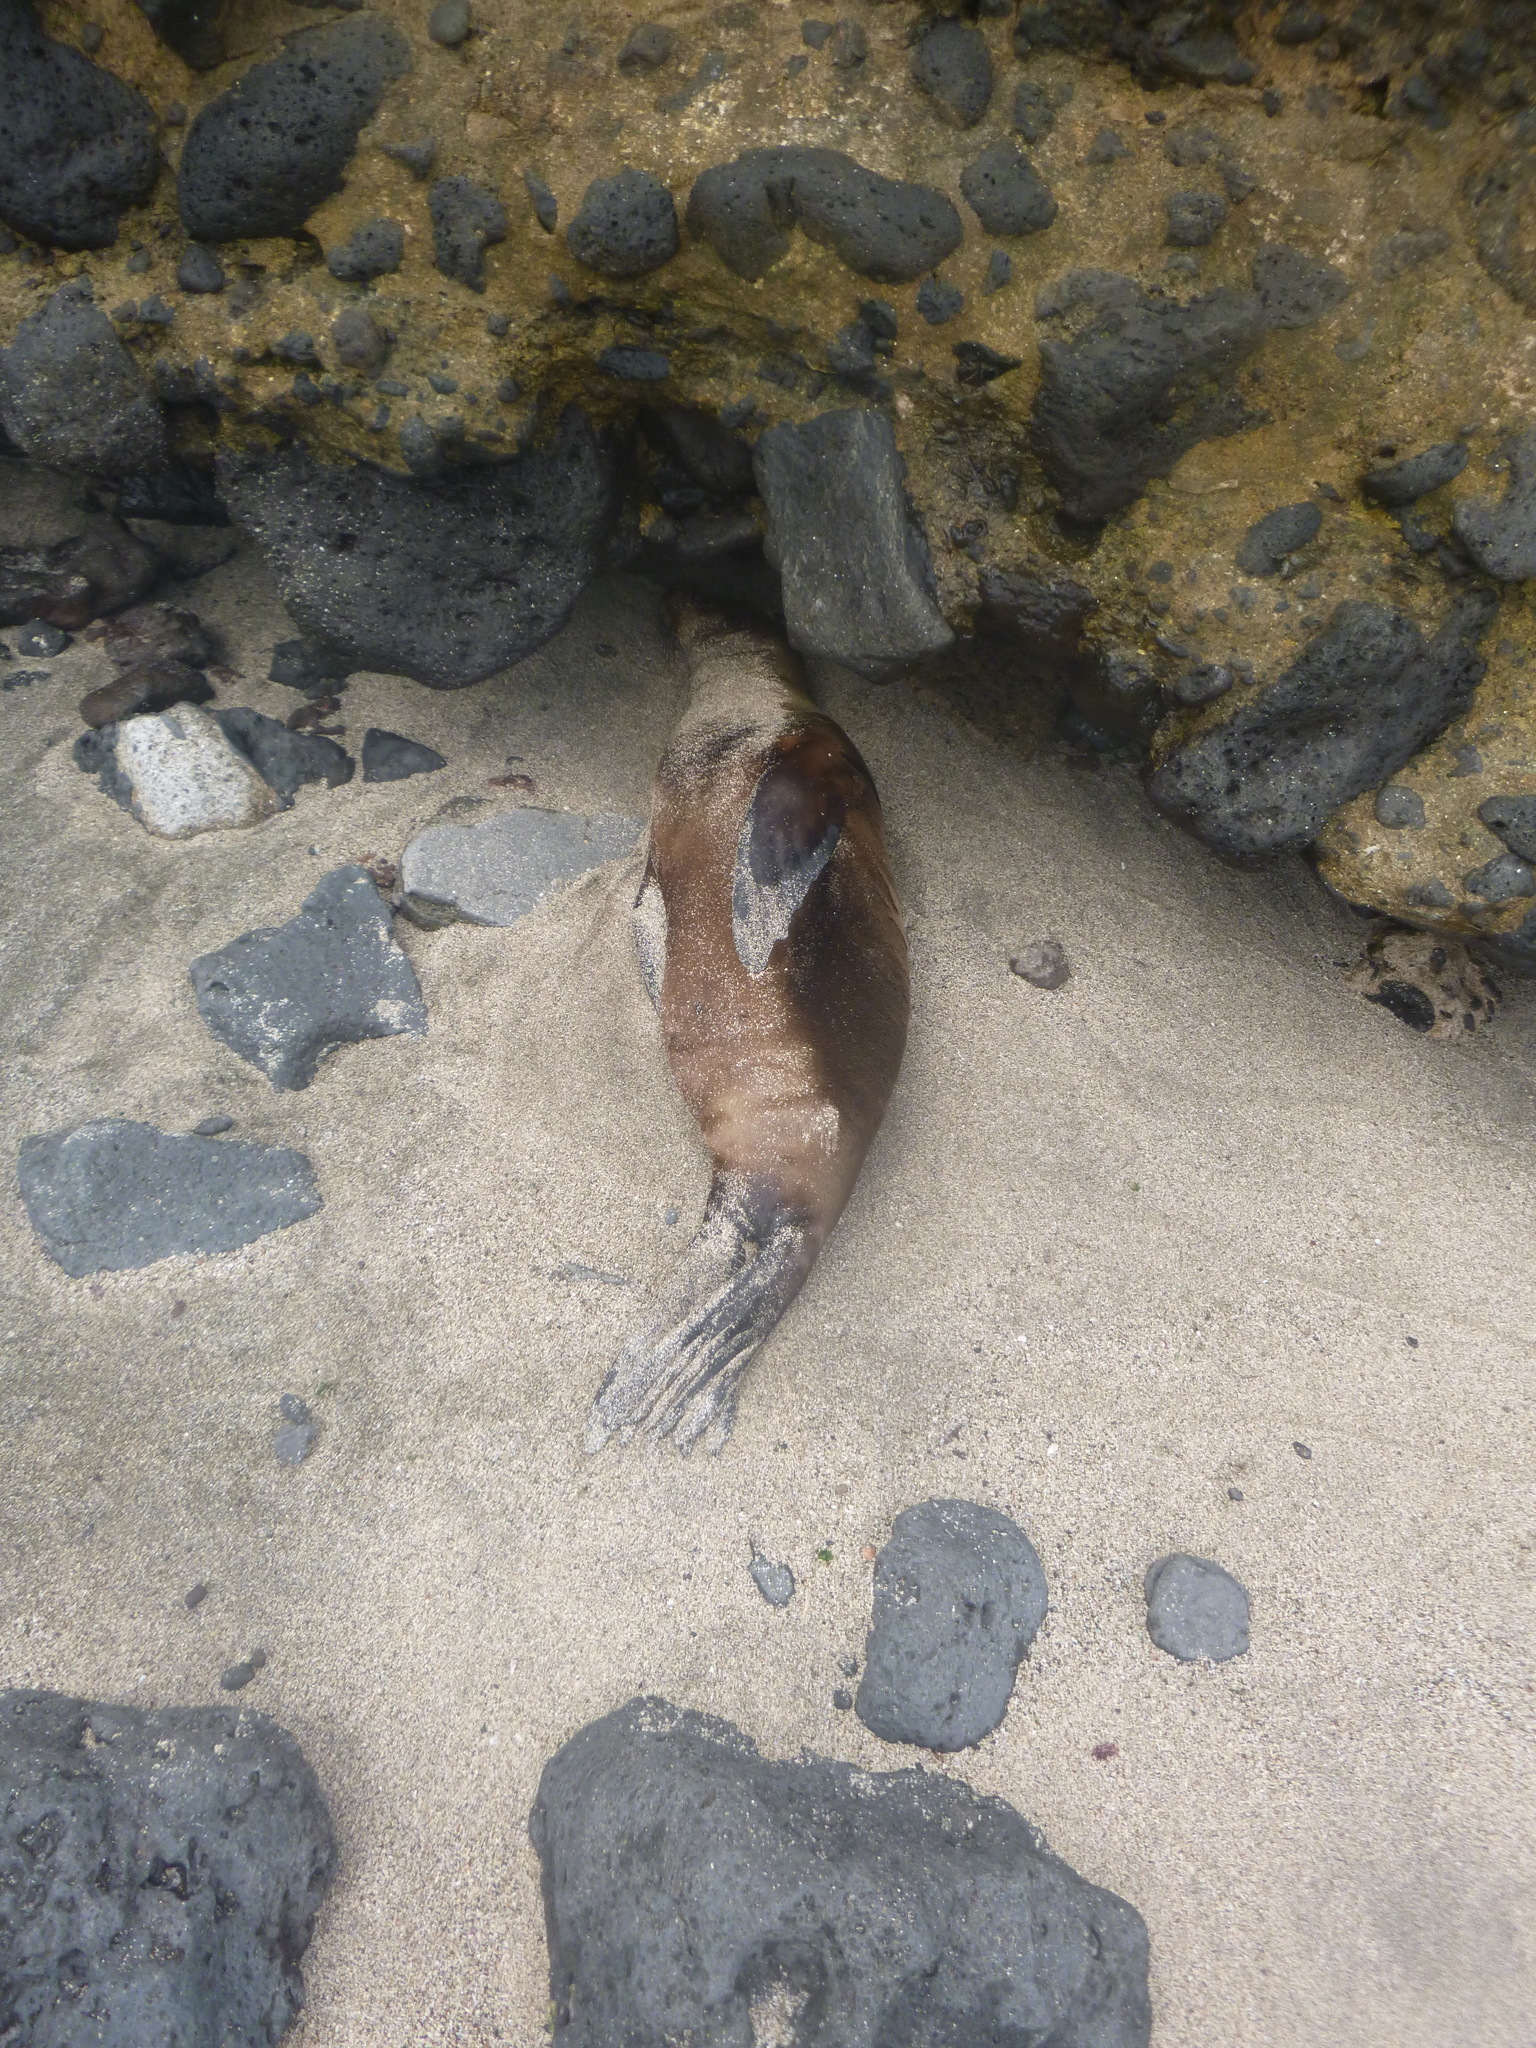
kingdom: Animalia
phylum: Chordata
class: Mammalia
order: Carnivora
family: Otariidae
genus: Zalophus
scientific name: Zalophus wollebaeki
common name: Galapagos sea lion
